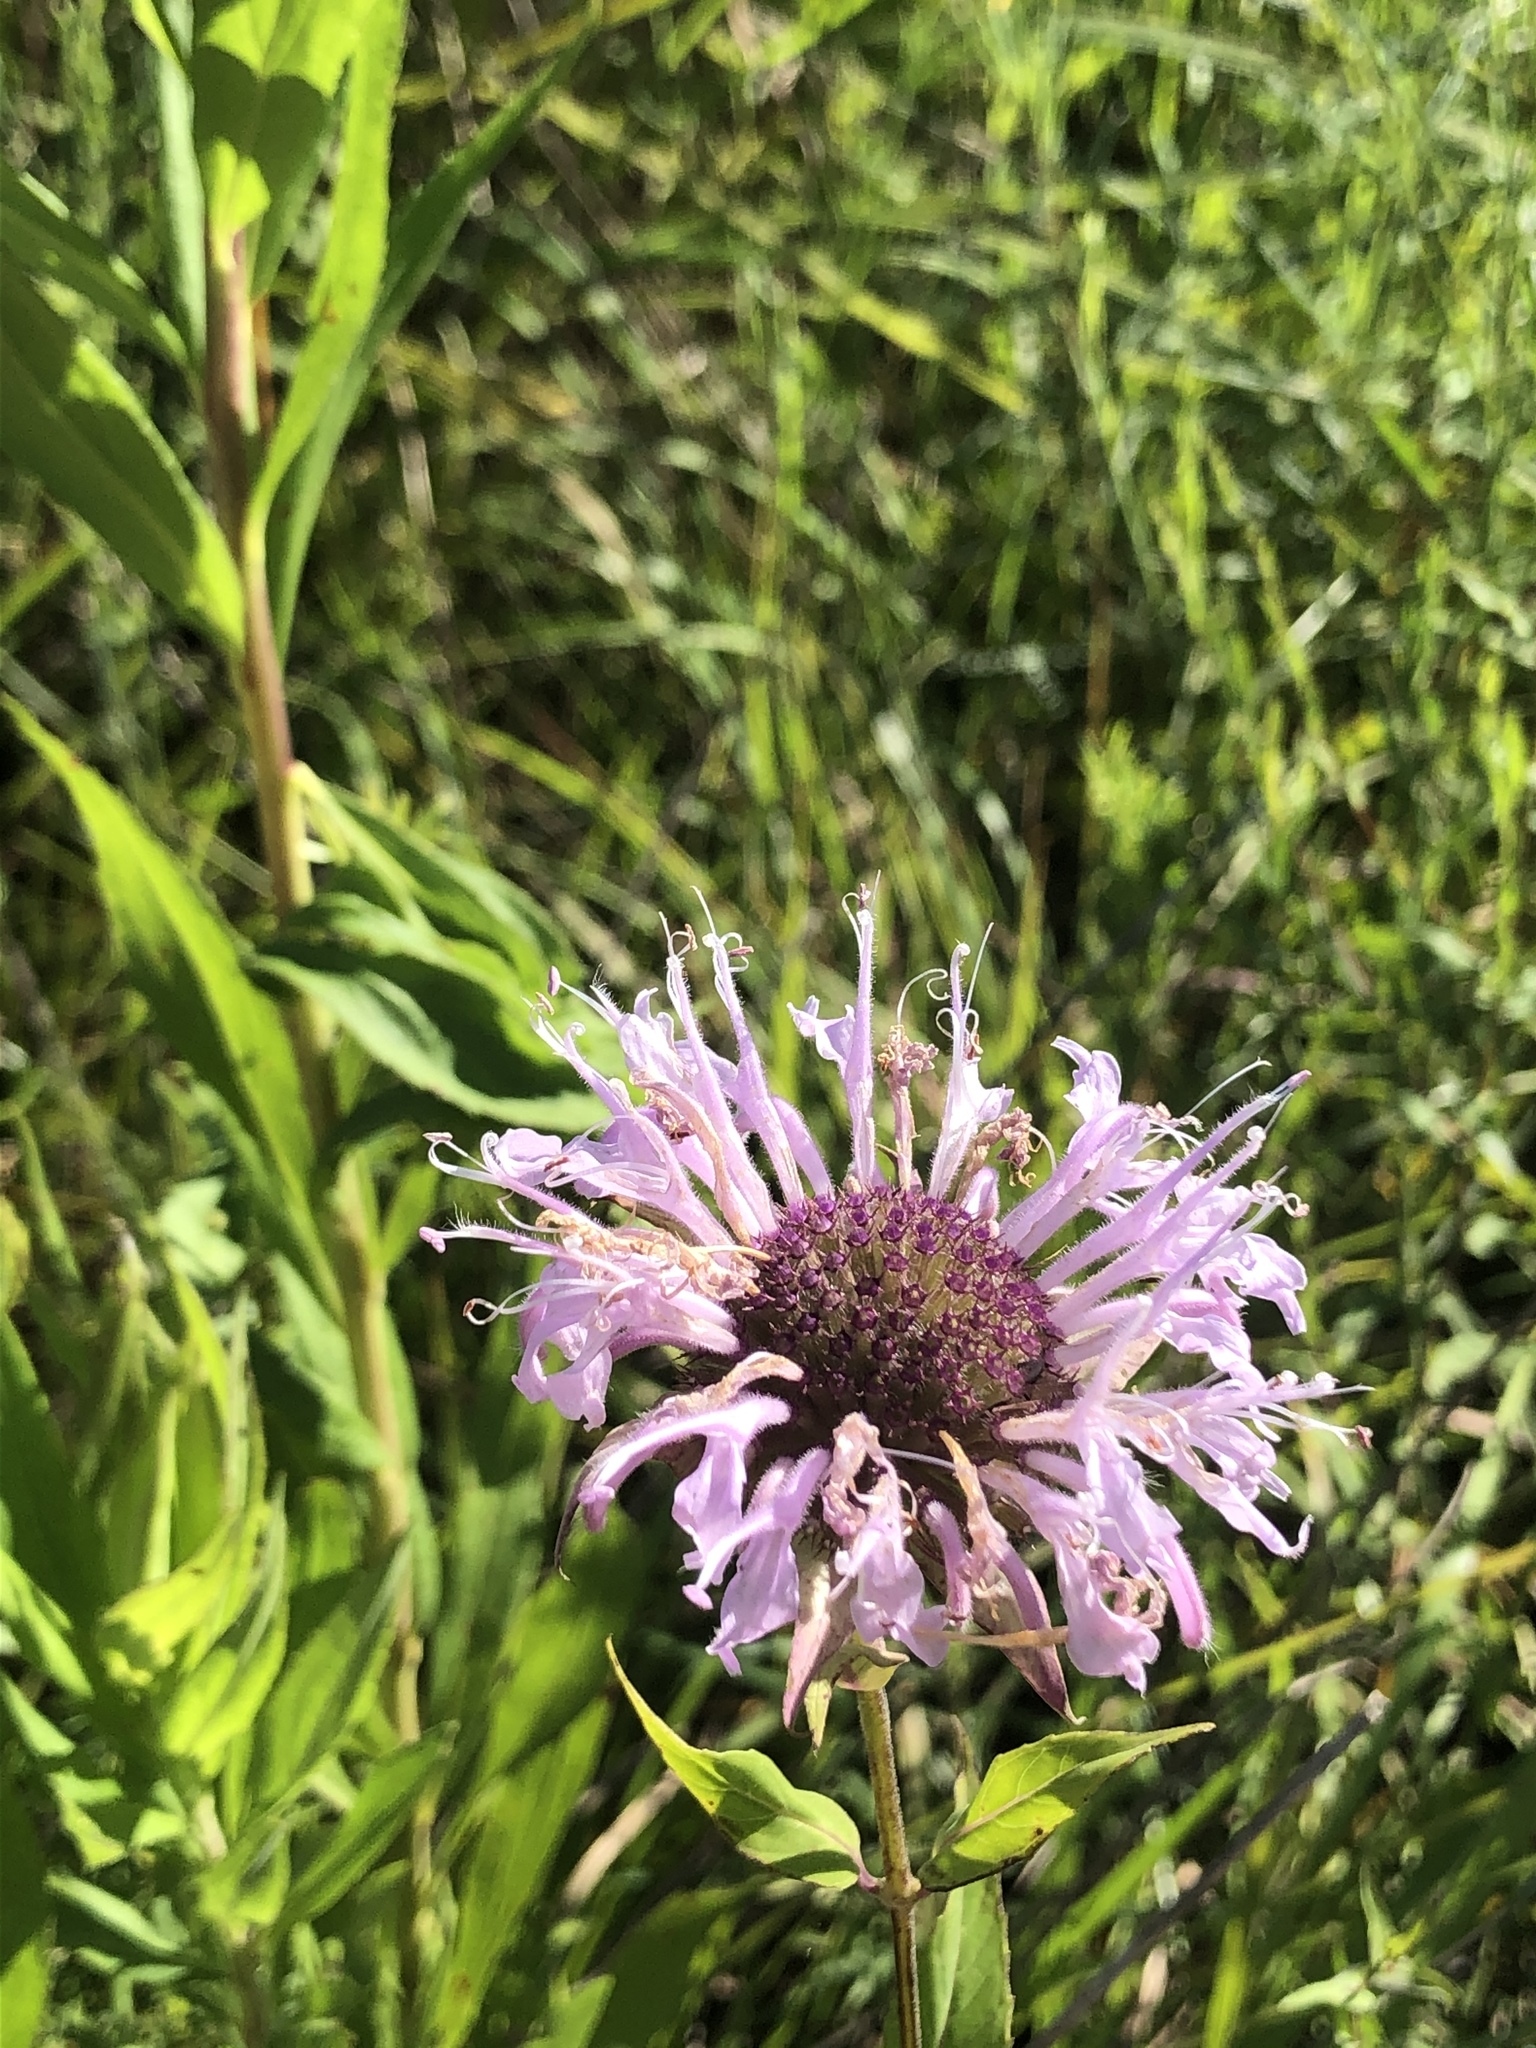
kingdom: Plantae
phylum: Tracheophyta
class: Magnoliopsida
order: Lamiales
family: Lamiaceae
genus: Monarda
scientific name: Monarda fistulosa
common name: Purple beebalm
